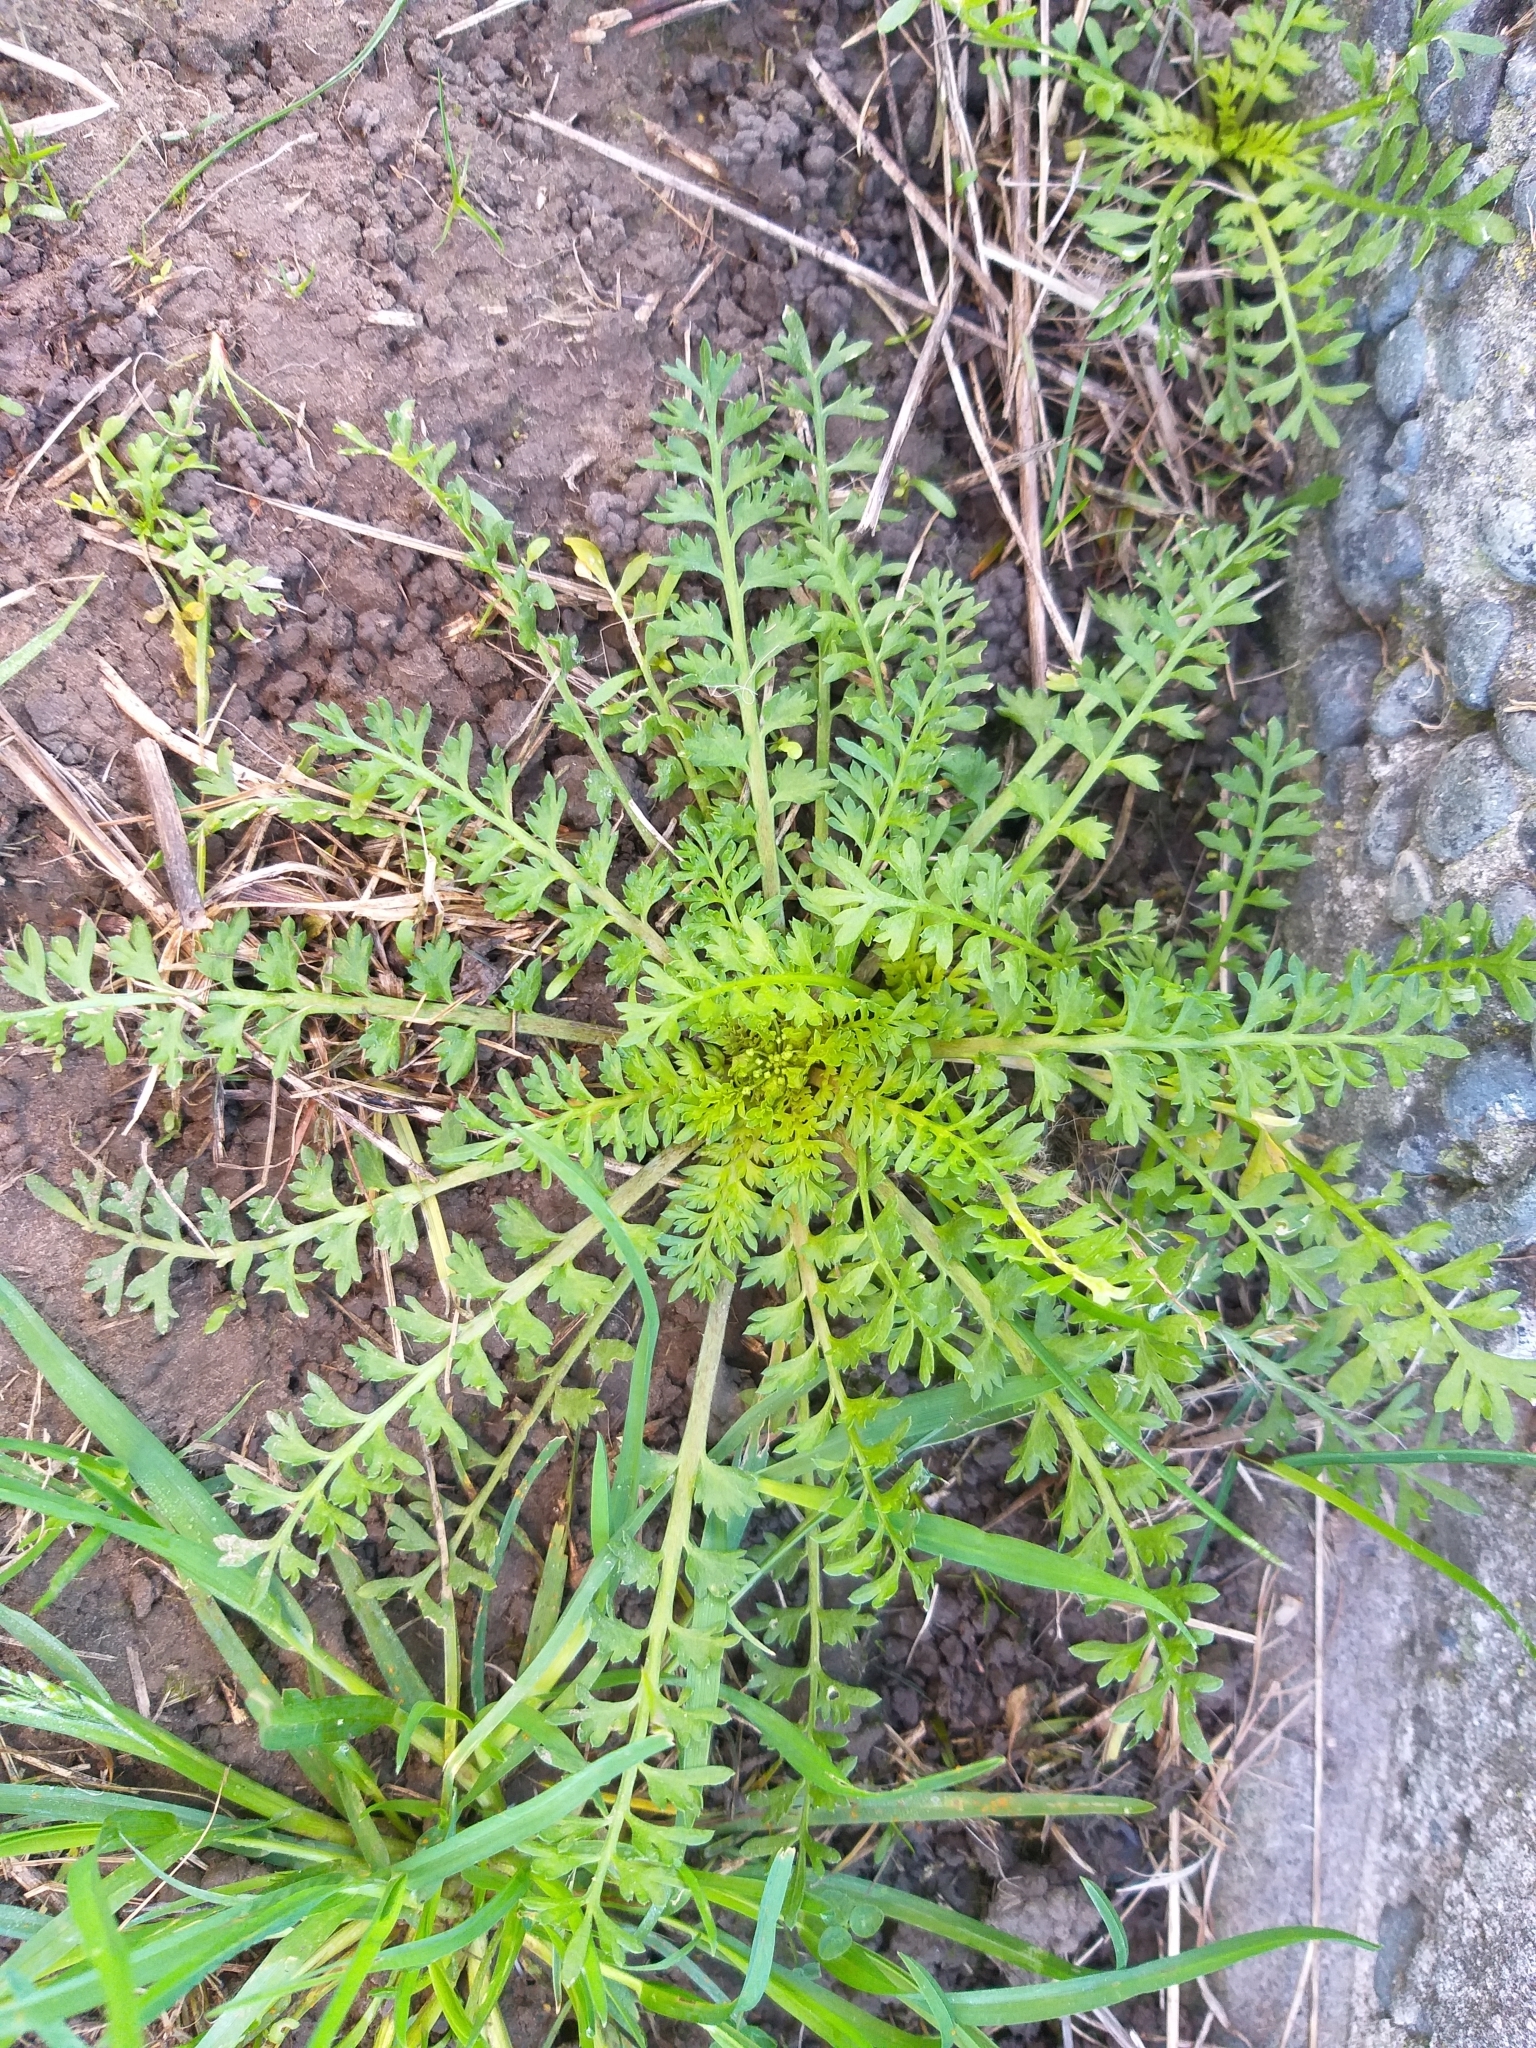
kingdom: Plantae
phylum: Tracheophyta
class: Magnoliopsida
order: Brassicales
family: Brassicaceae
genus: Lepidium
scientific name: Lepidium didymum
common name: Lesser swinecress
